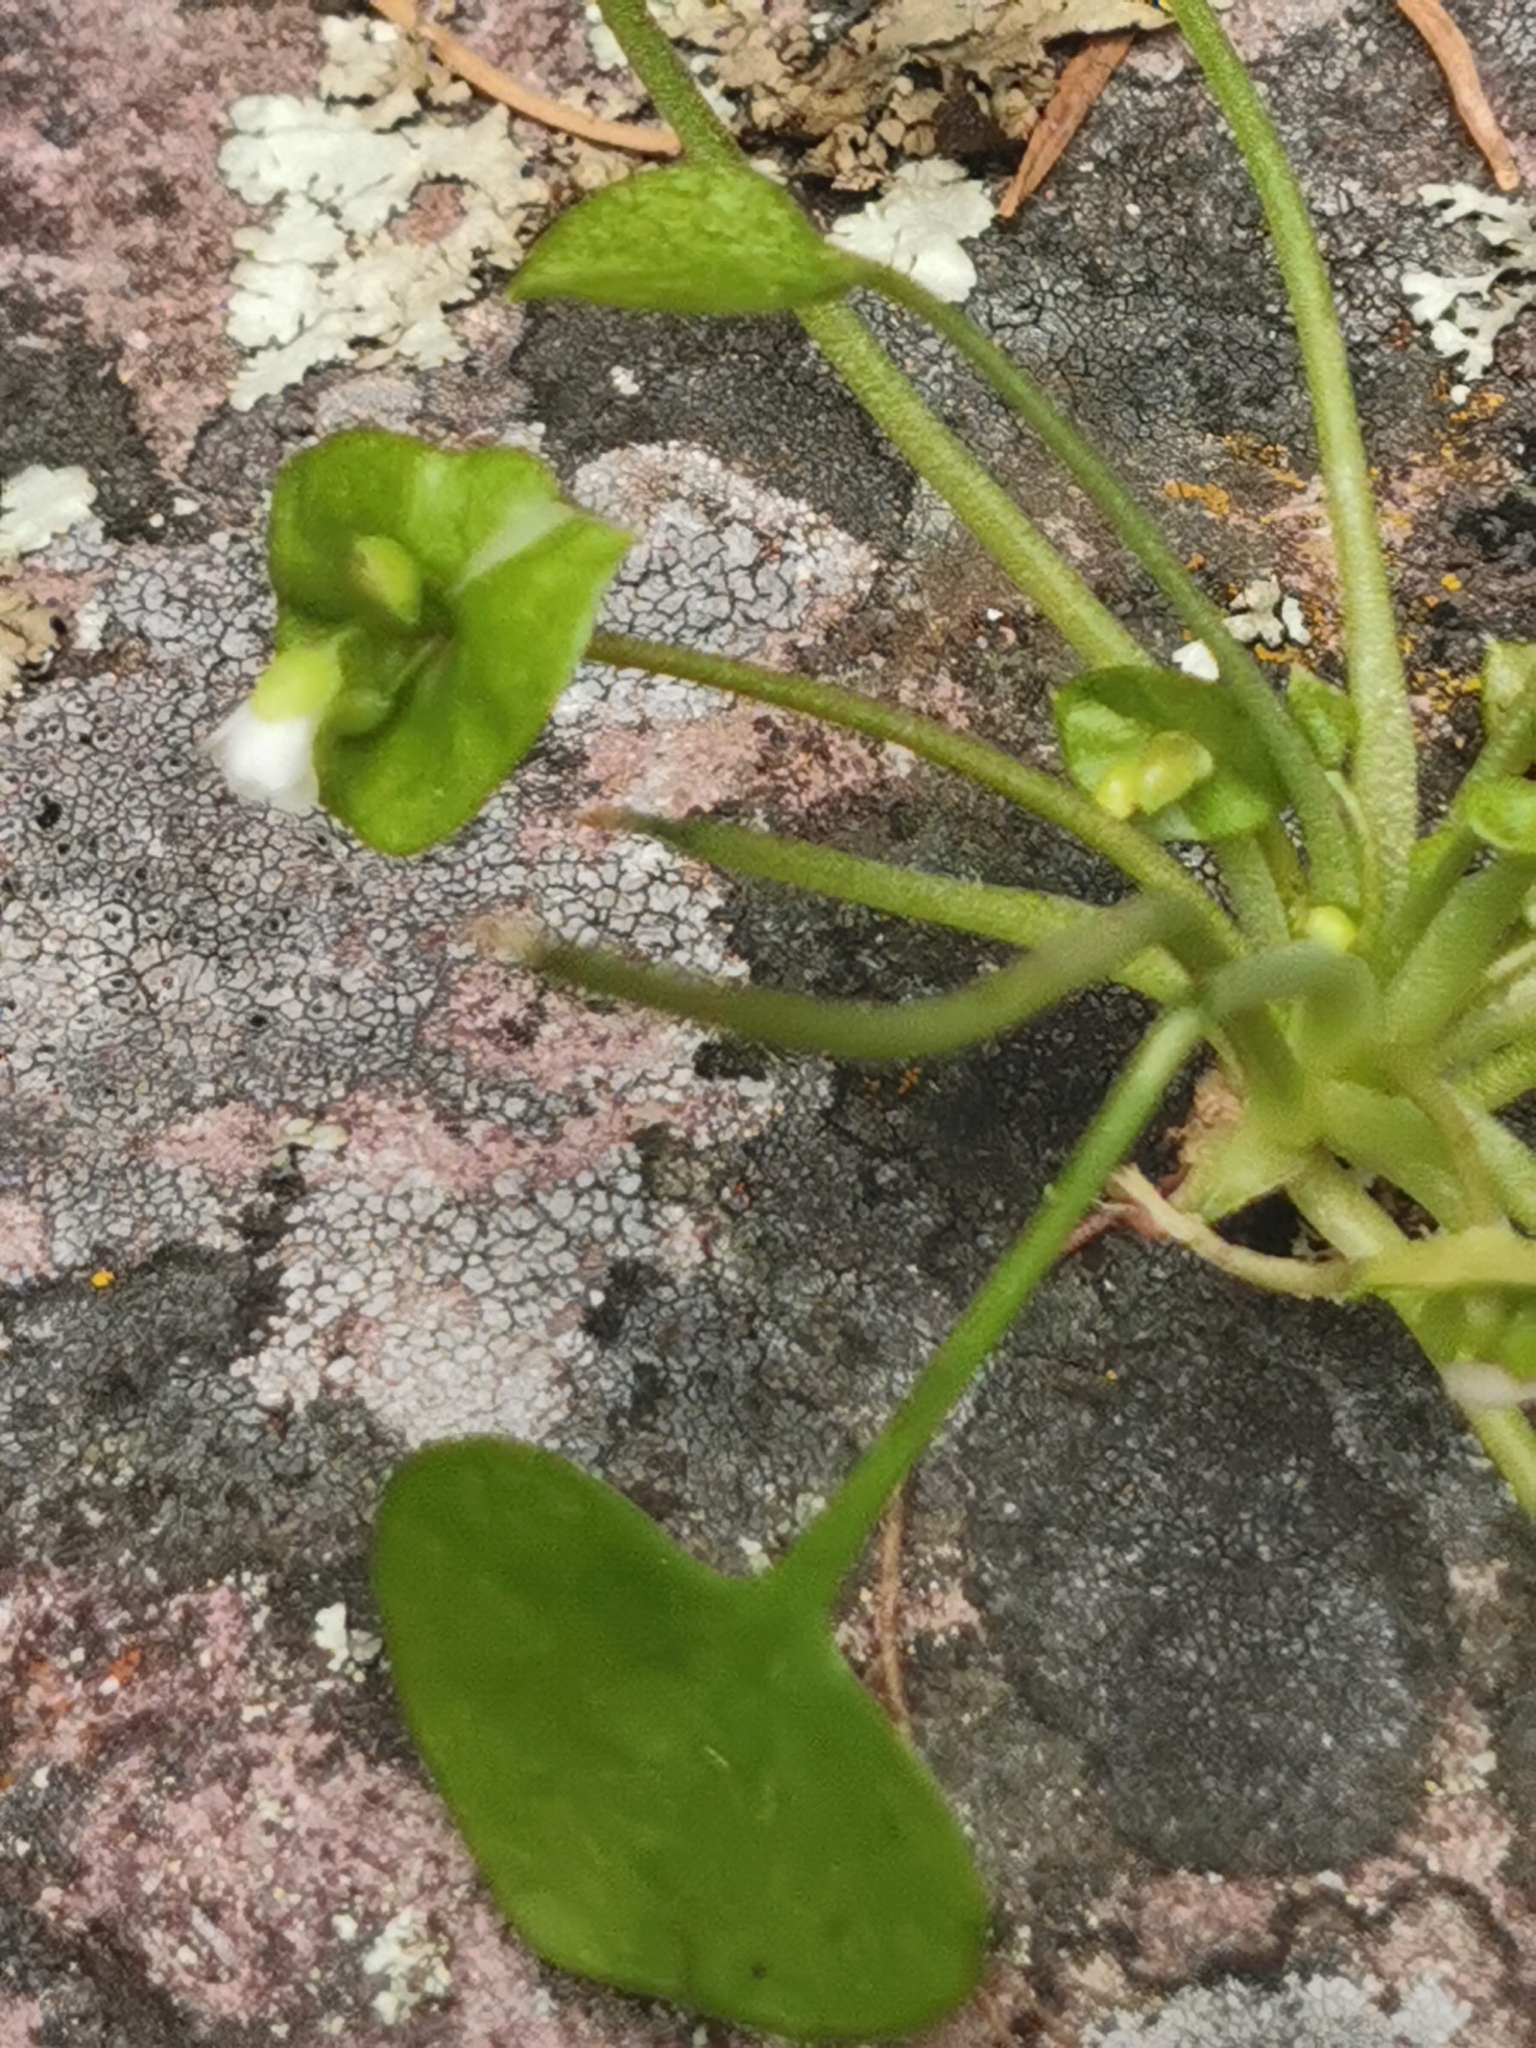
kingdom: Plantae
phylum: Tracheophyta
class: Magnoliopsida
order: Caryophyllales
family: Montiaceae
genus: Claytonia
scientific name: Claytonia perfoliata
